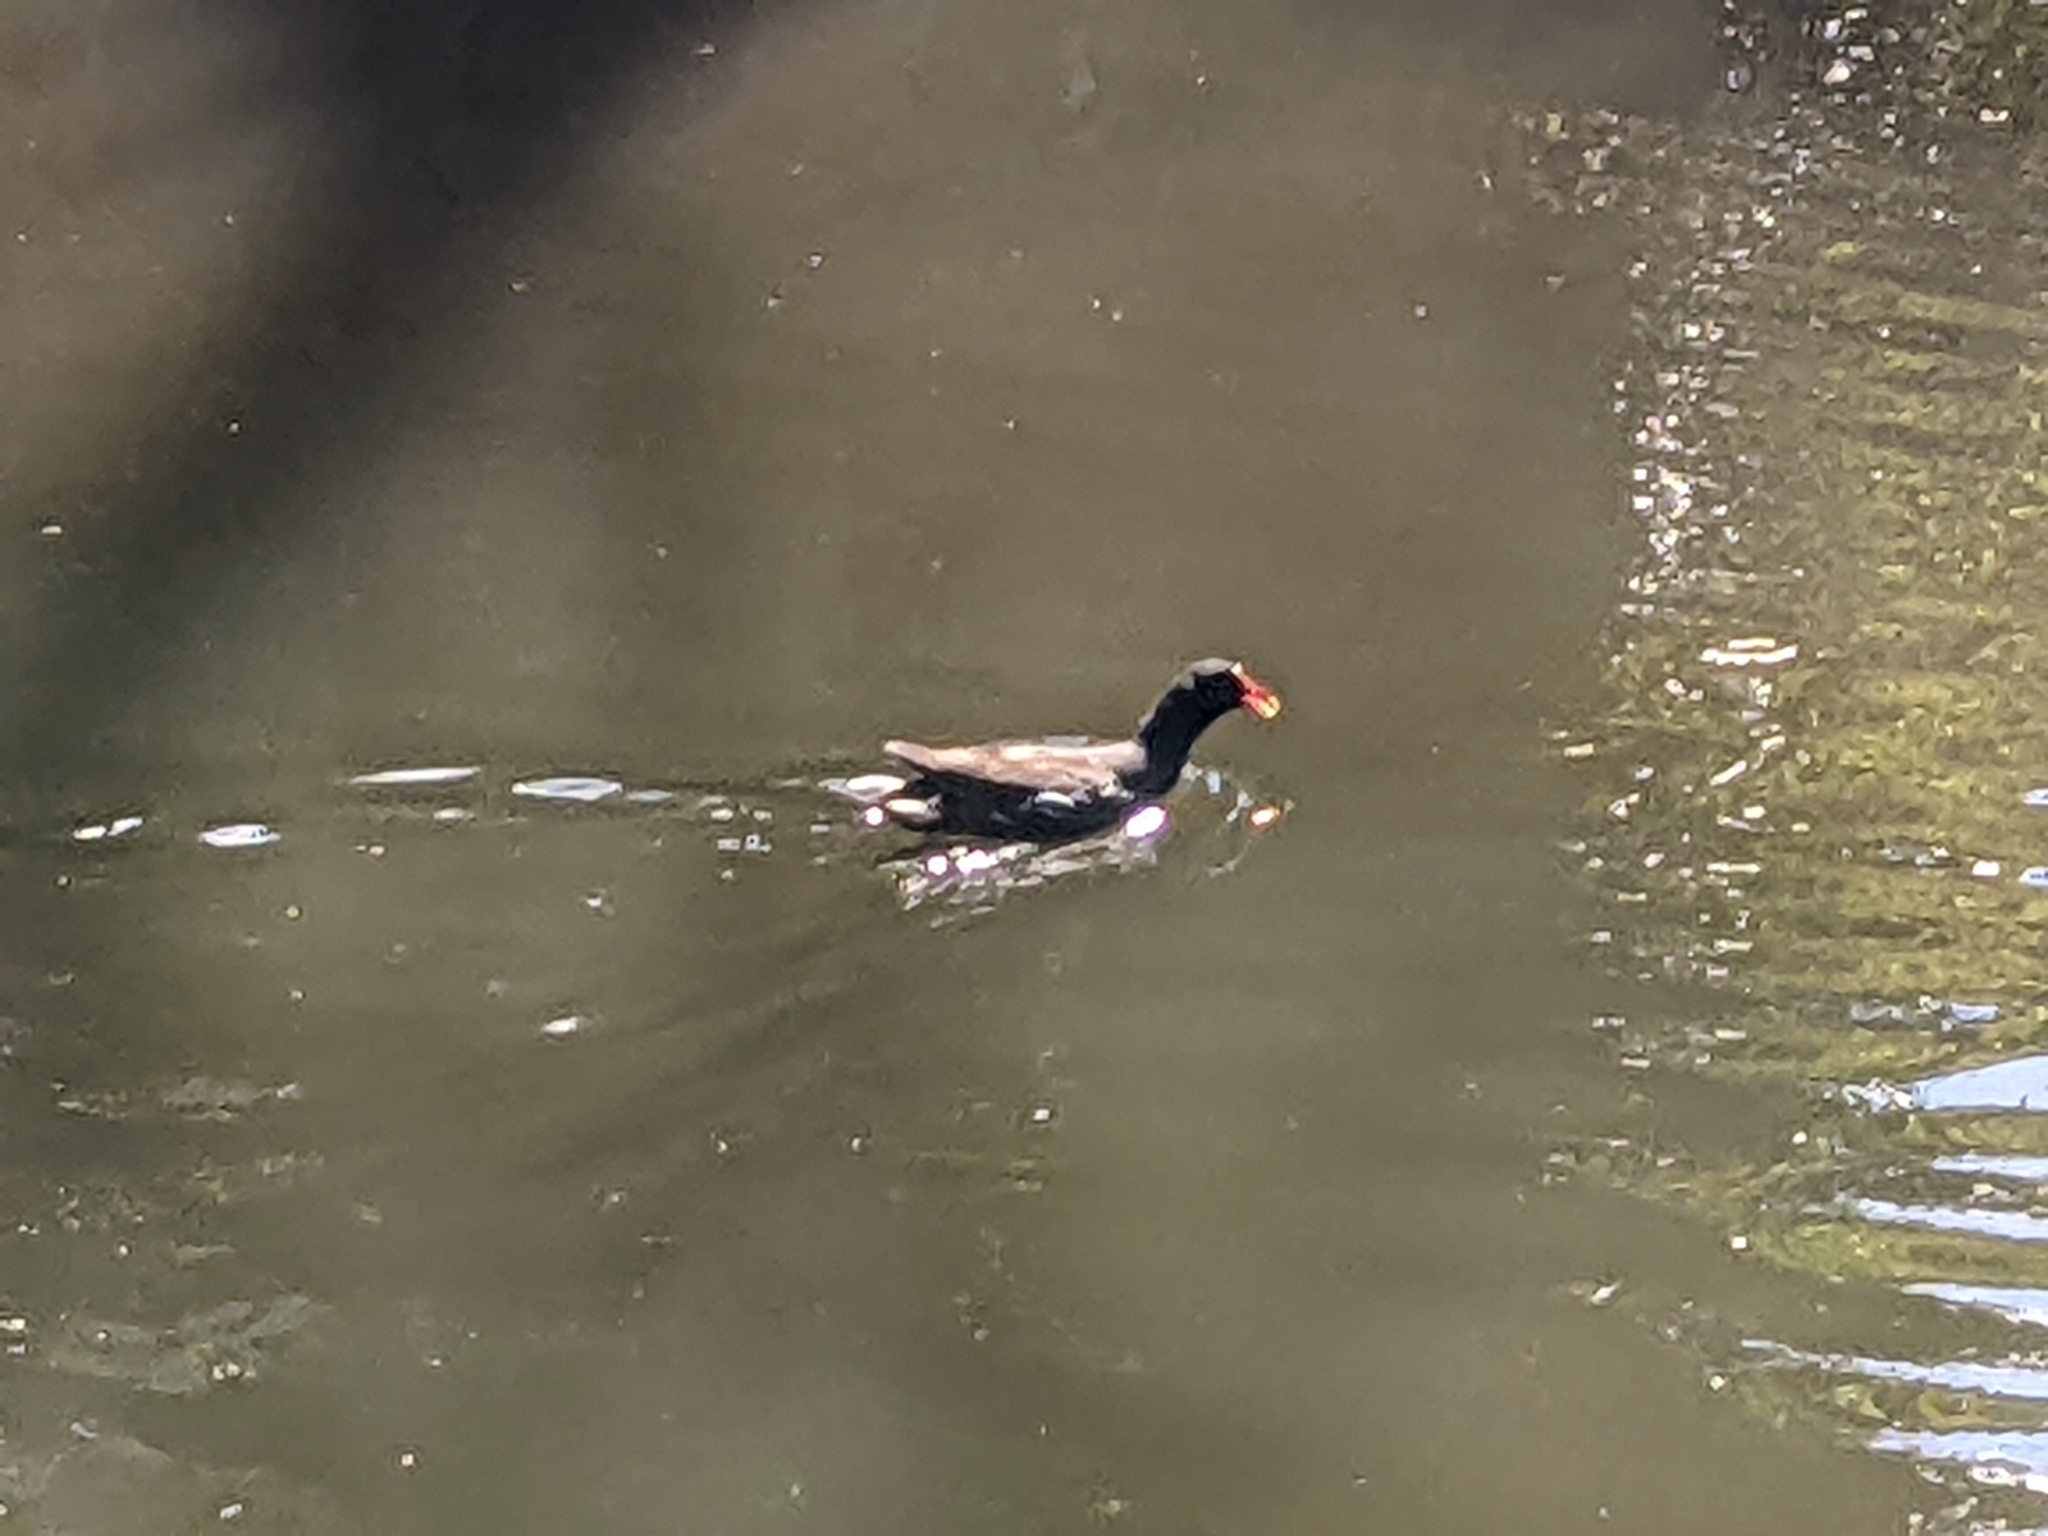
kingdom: Animalia
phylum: Chordata
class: Aves
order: Gruiformes
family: Rallidae
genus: Gallinula
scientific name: Gallinula chloropus
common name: Common moorhen
